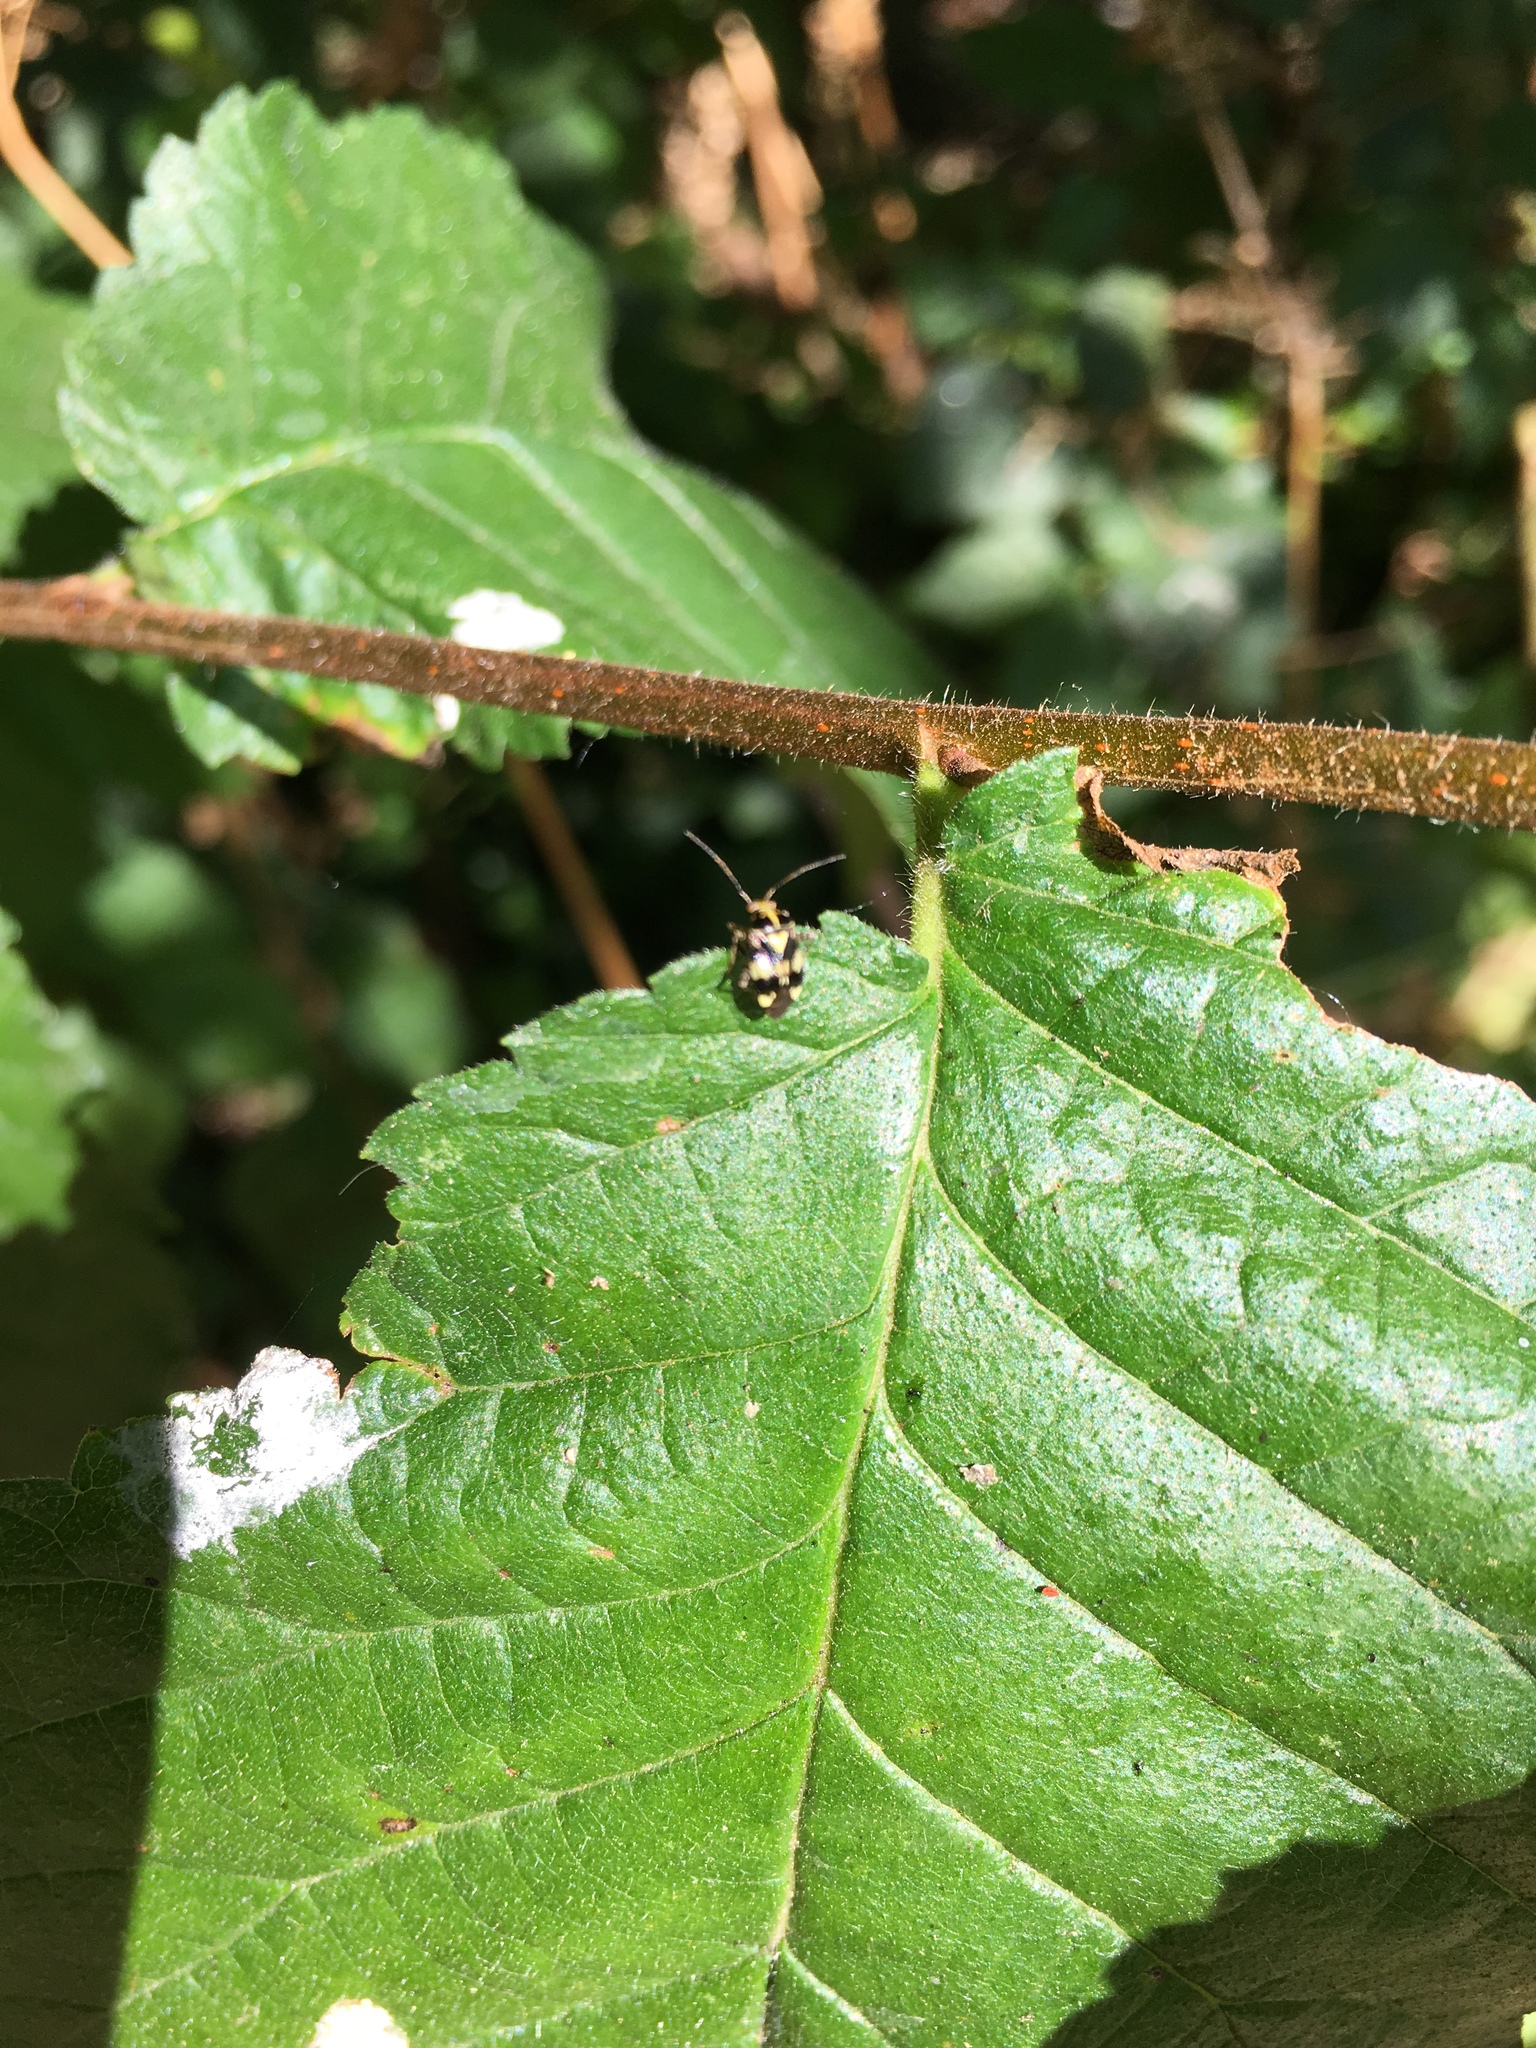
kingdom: Animalia
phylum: Arthropoda
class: Insecta
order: Hemiptera
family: Miridae
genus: Liocoris
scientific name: Liocoris tripustulatus
